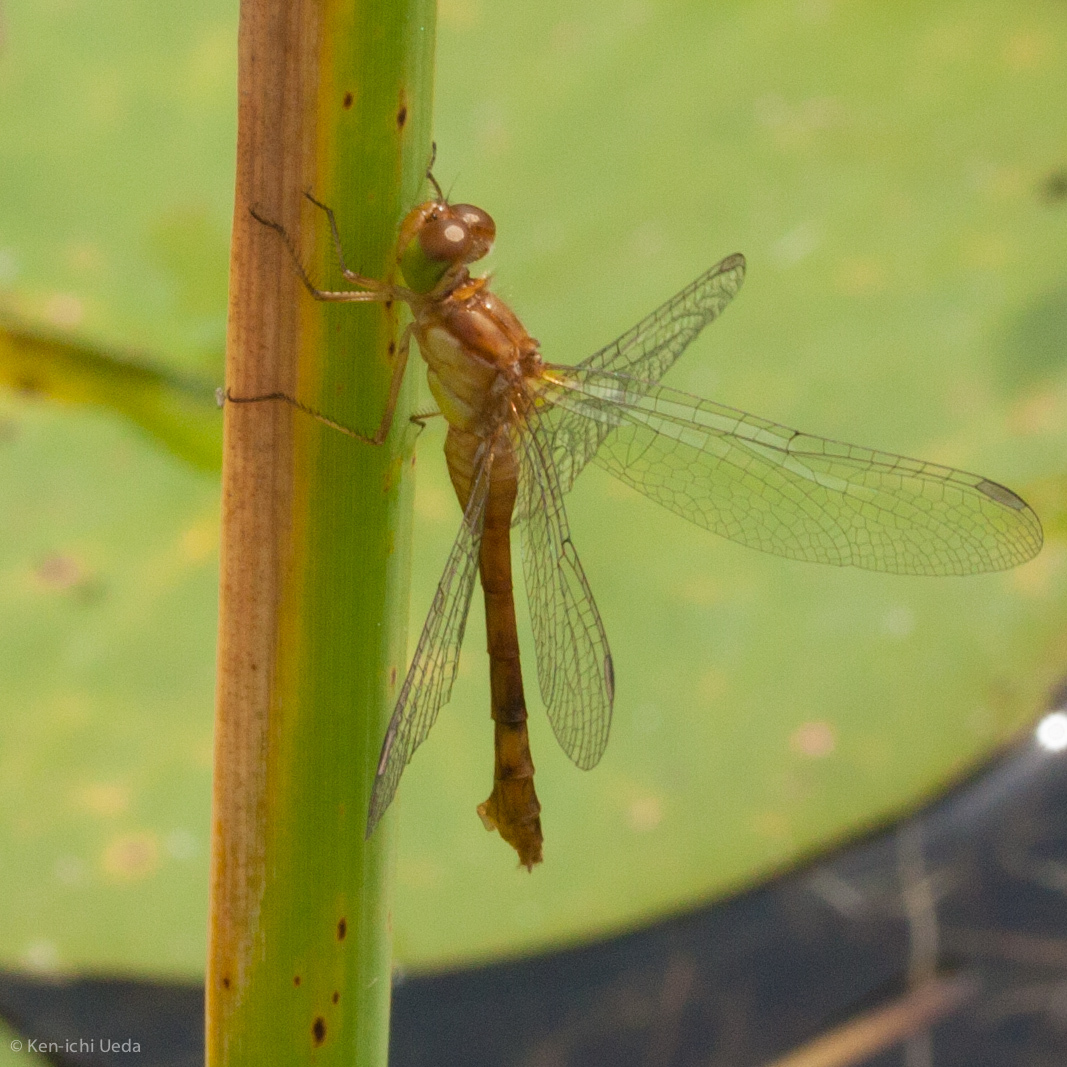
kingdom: Animalia
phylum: Arthropoda
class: Insecta
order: Odonata
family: Libellulidae
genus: Sympetrum
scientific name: Sympetrum vicinum
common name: Autumn meadowhawk
